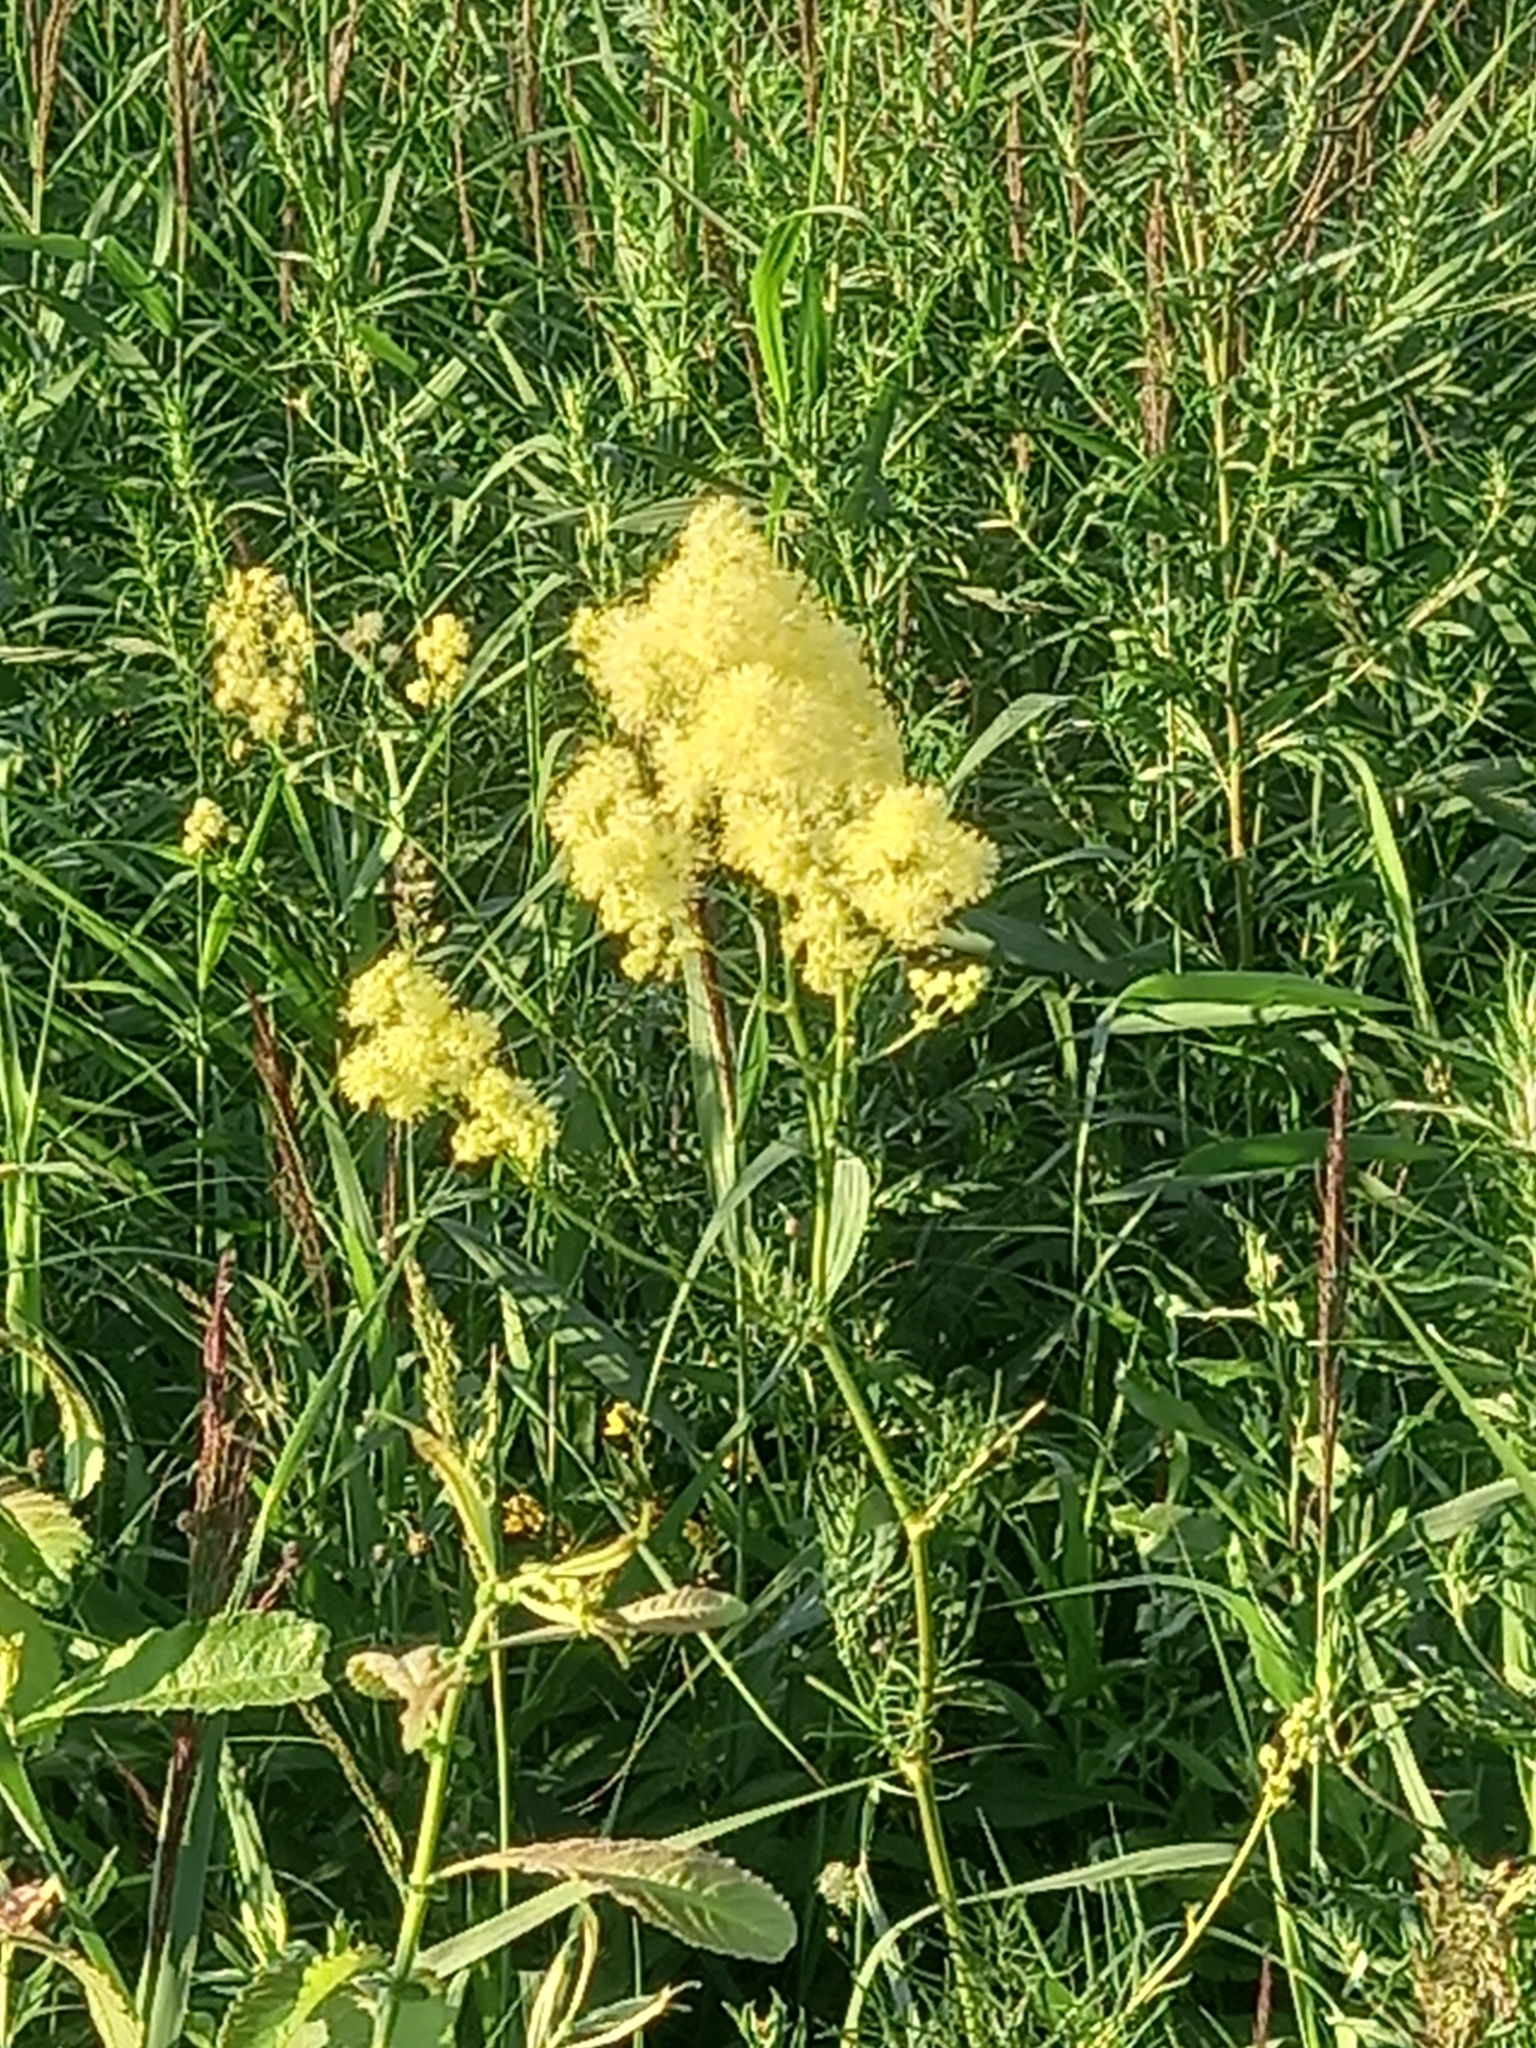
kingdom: Plantae
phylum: Tracheophyta
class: Magnoliopsida
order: Ranunculales
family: Ranunculaceae
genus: Thalictrum
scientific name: Thalictrum lucidum
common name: Shining meadow-rue
